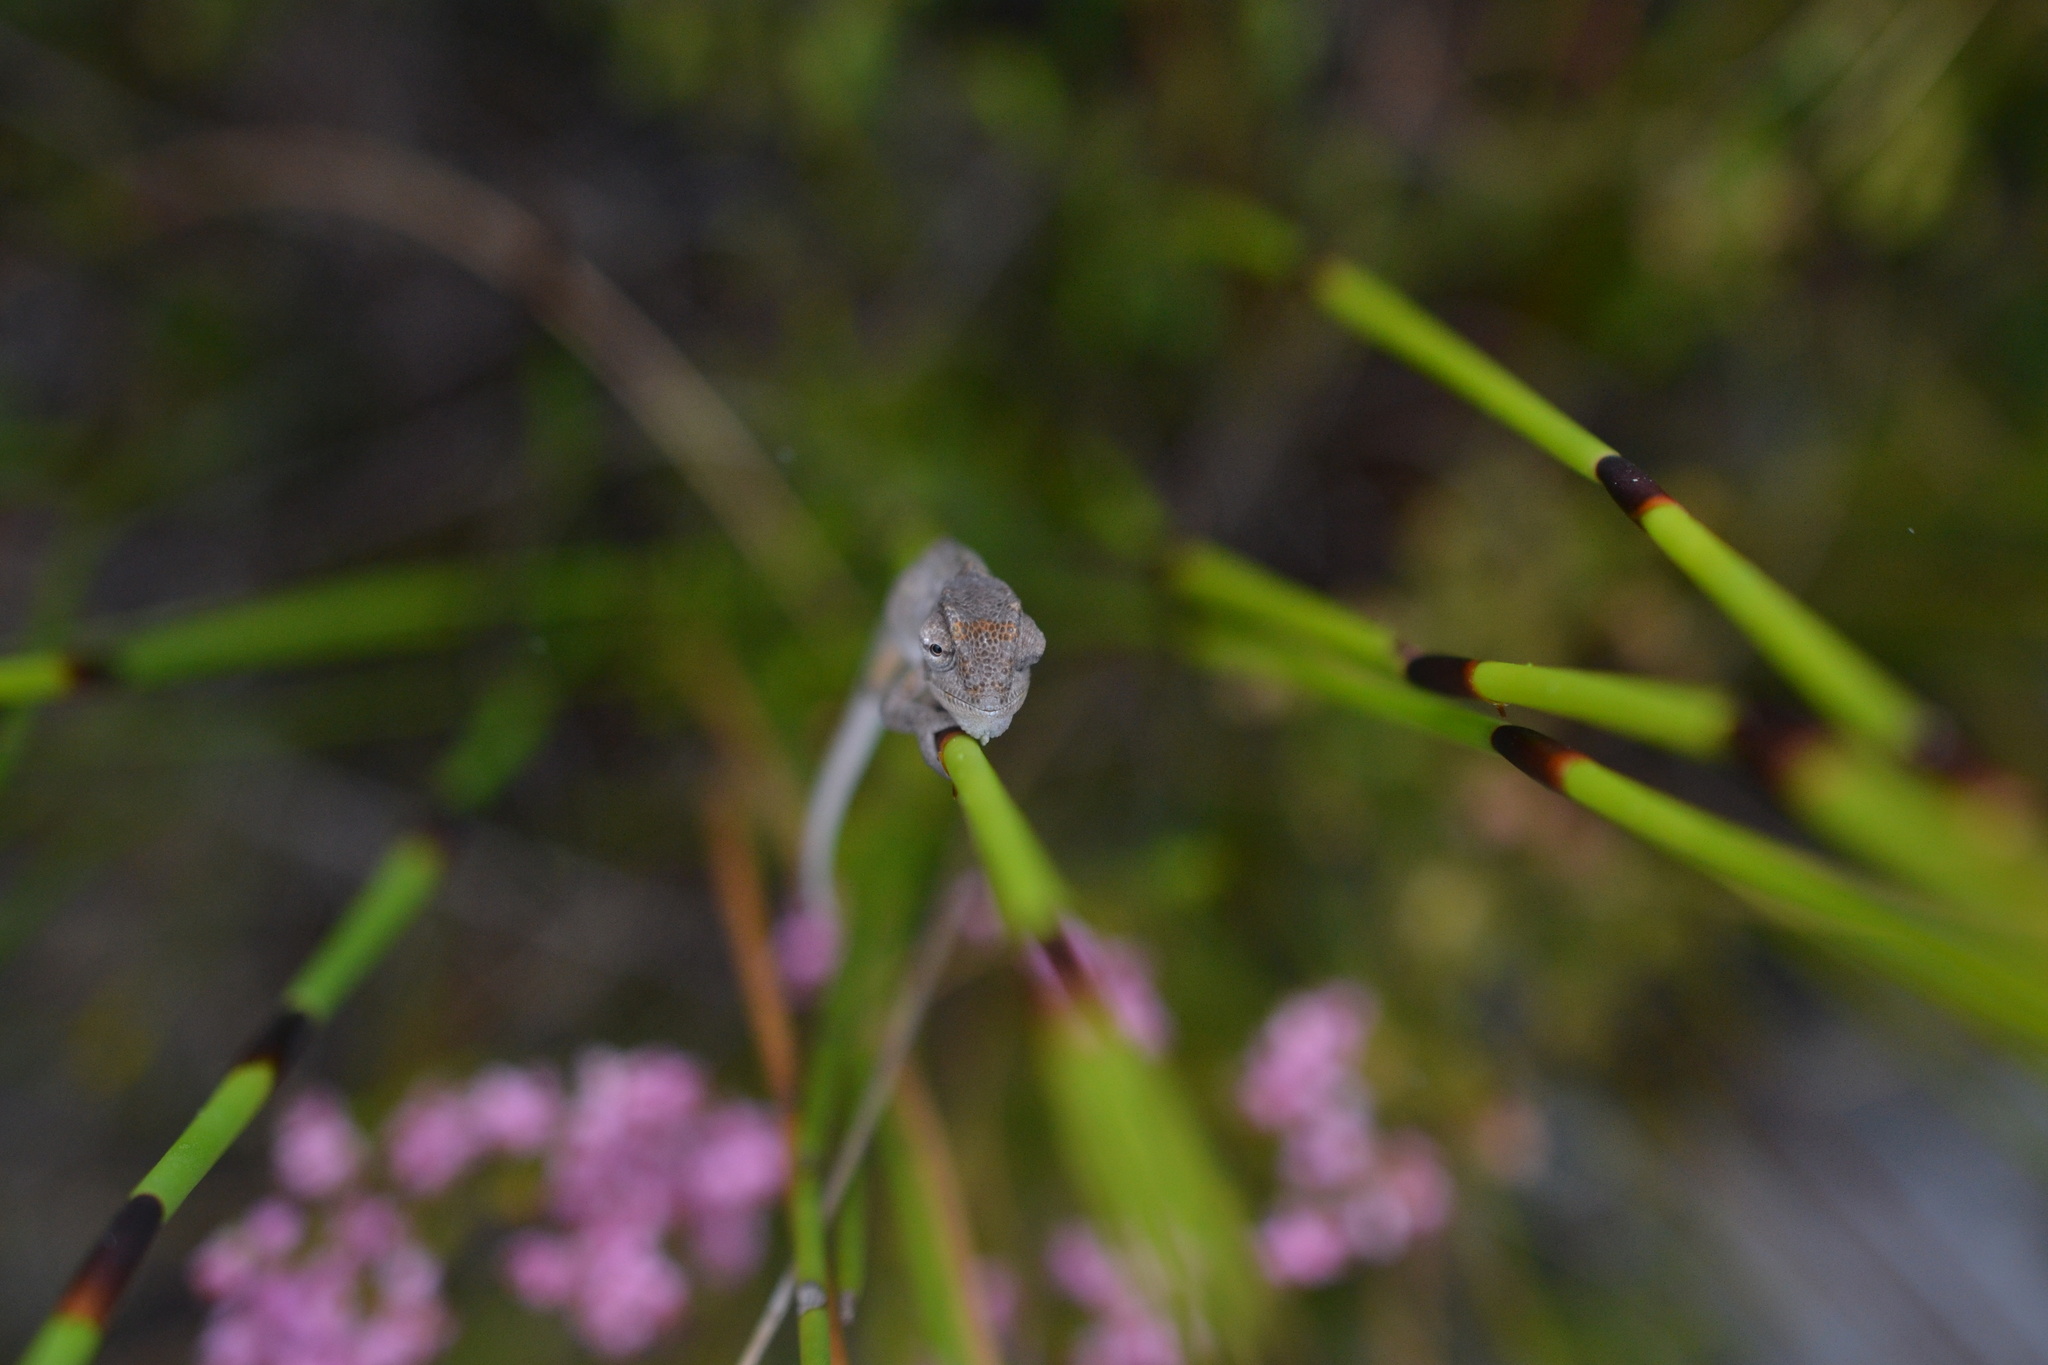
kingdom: Animalia
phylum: Chordata
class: Squamata
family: Chamaeleonidae
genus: Bradypodion
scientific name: Bradypodion pumilum
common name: Cape dwarf chameleon
